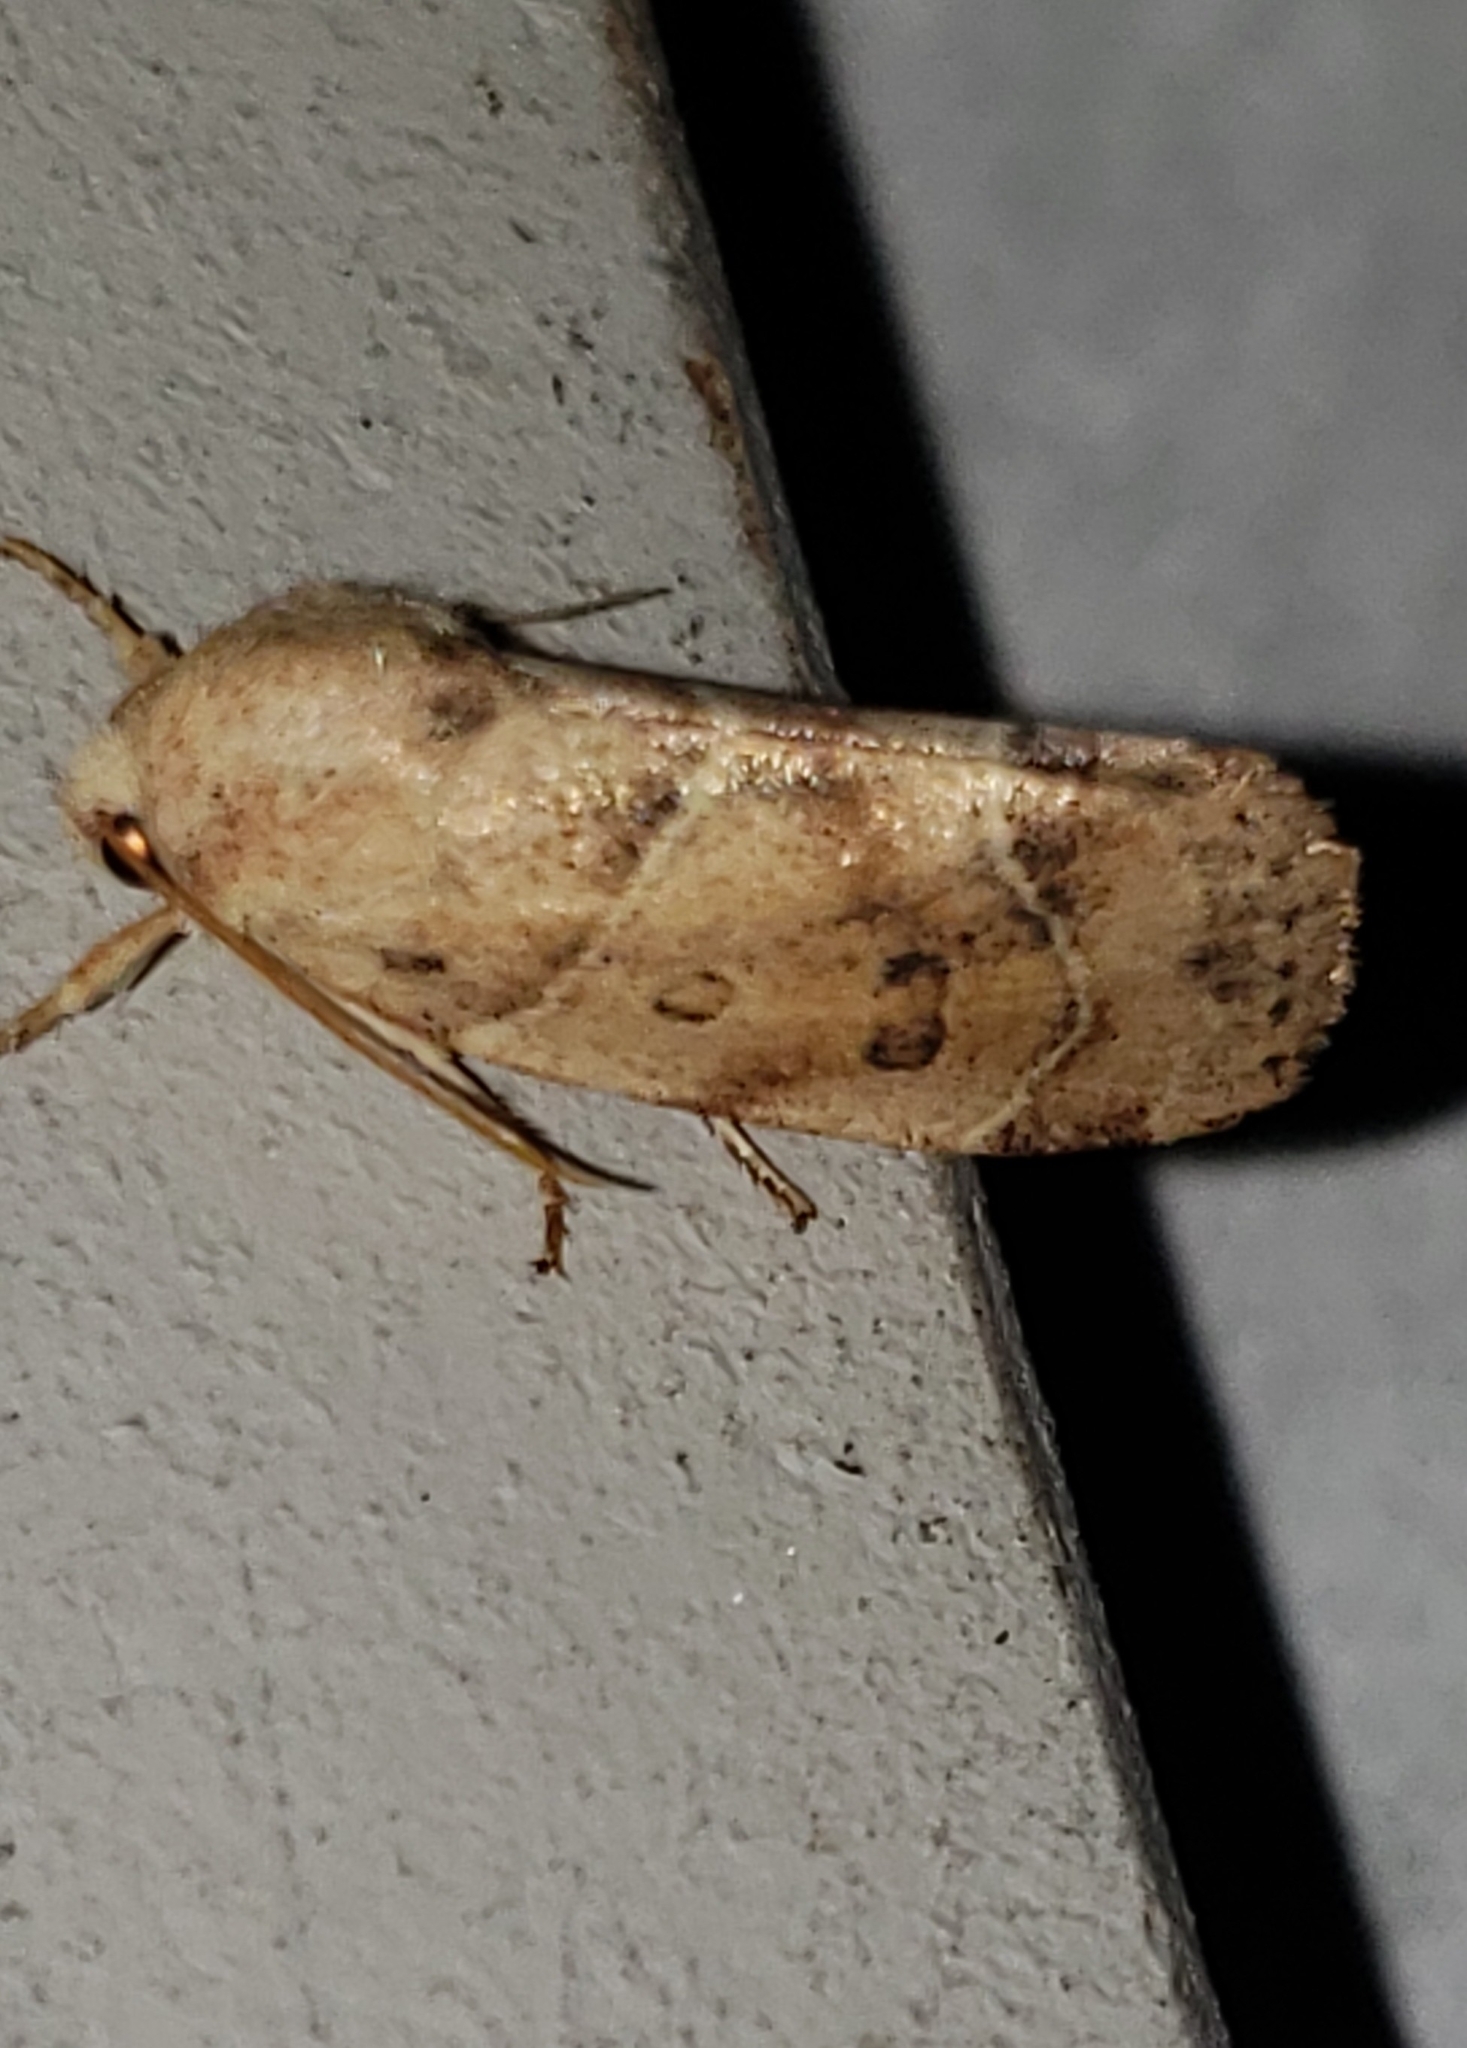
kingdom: Animalia
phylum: Arthropoda
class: Insecta
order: Lepidoptera
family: Noctuidae
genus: Cosmia
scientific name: Cosmia calami
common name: American dun-bar moth
